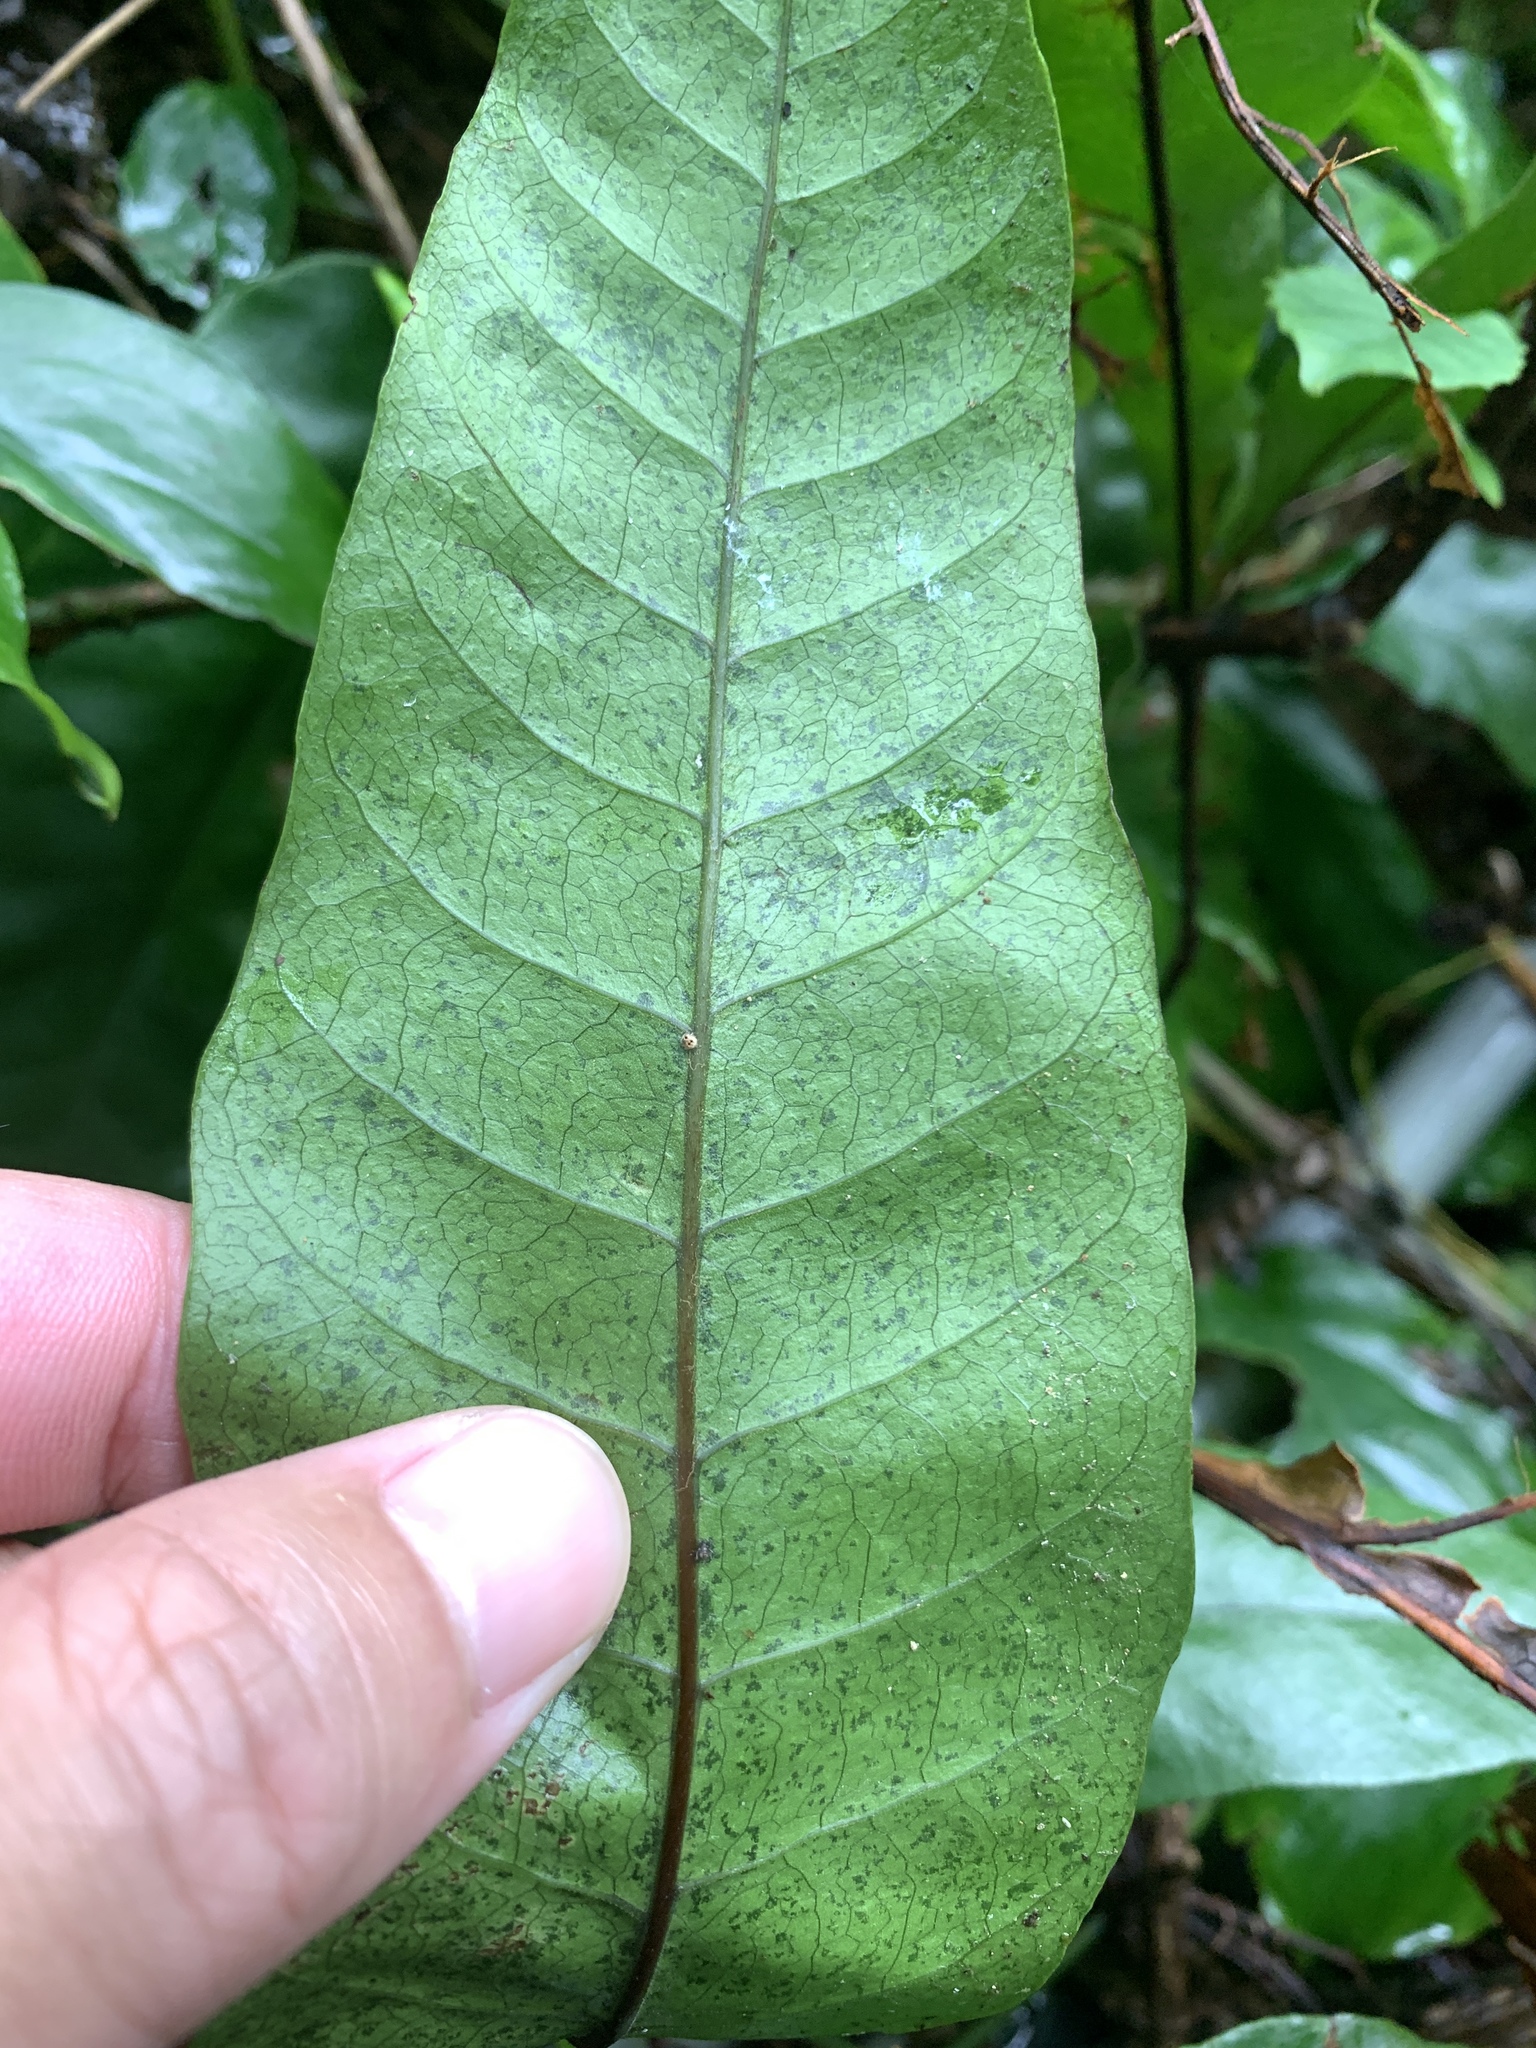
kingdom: Plantae
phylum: Tracheophyta
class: Polypodiopsida
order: Polypodiales
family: Tectariaceae
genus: Tectaria
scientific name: Tectaria harlandii
